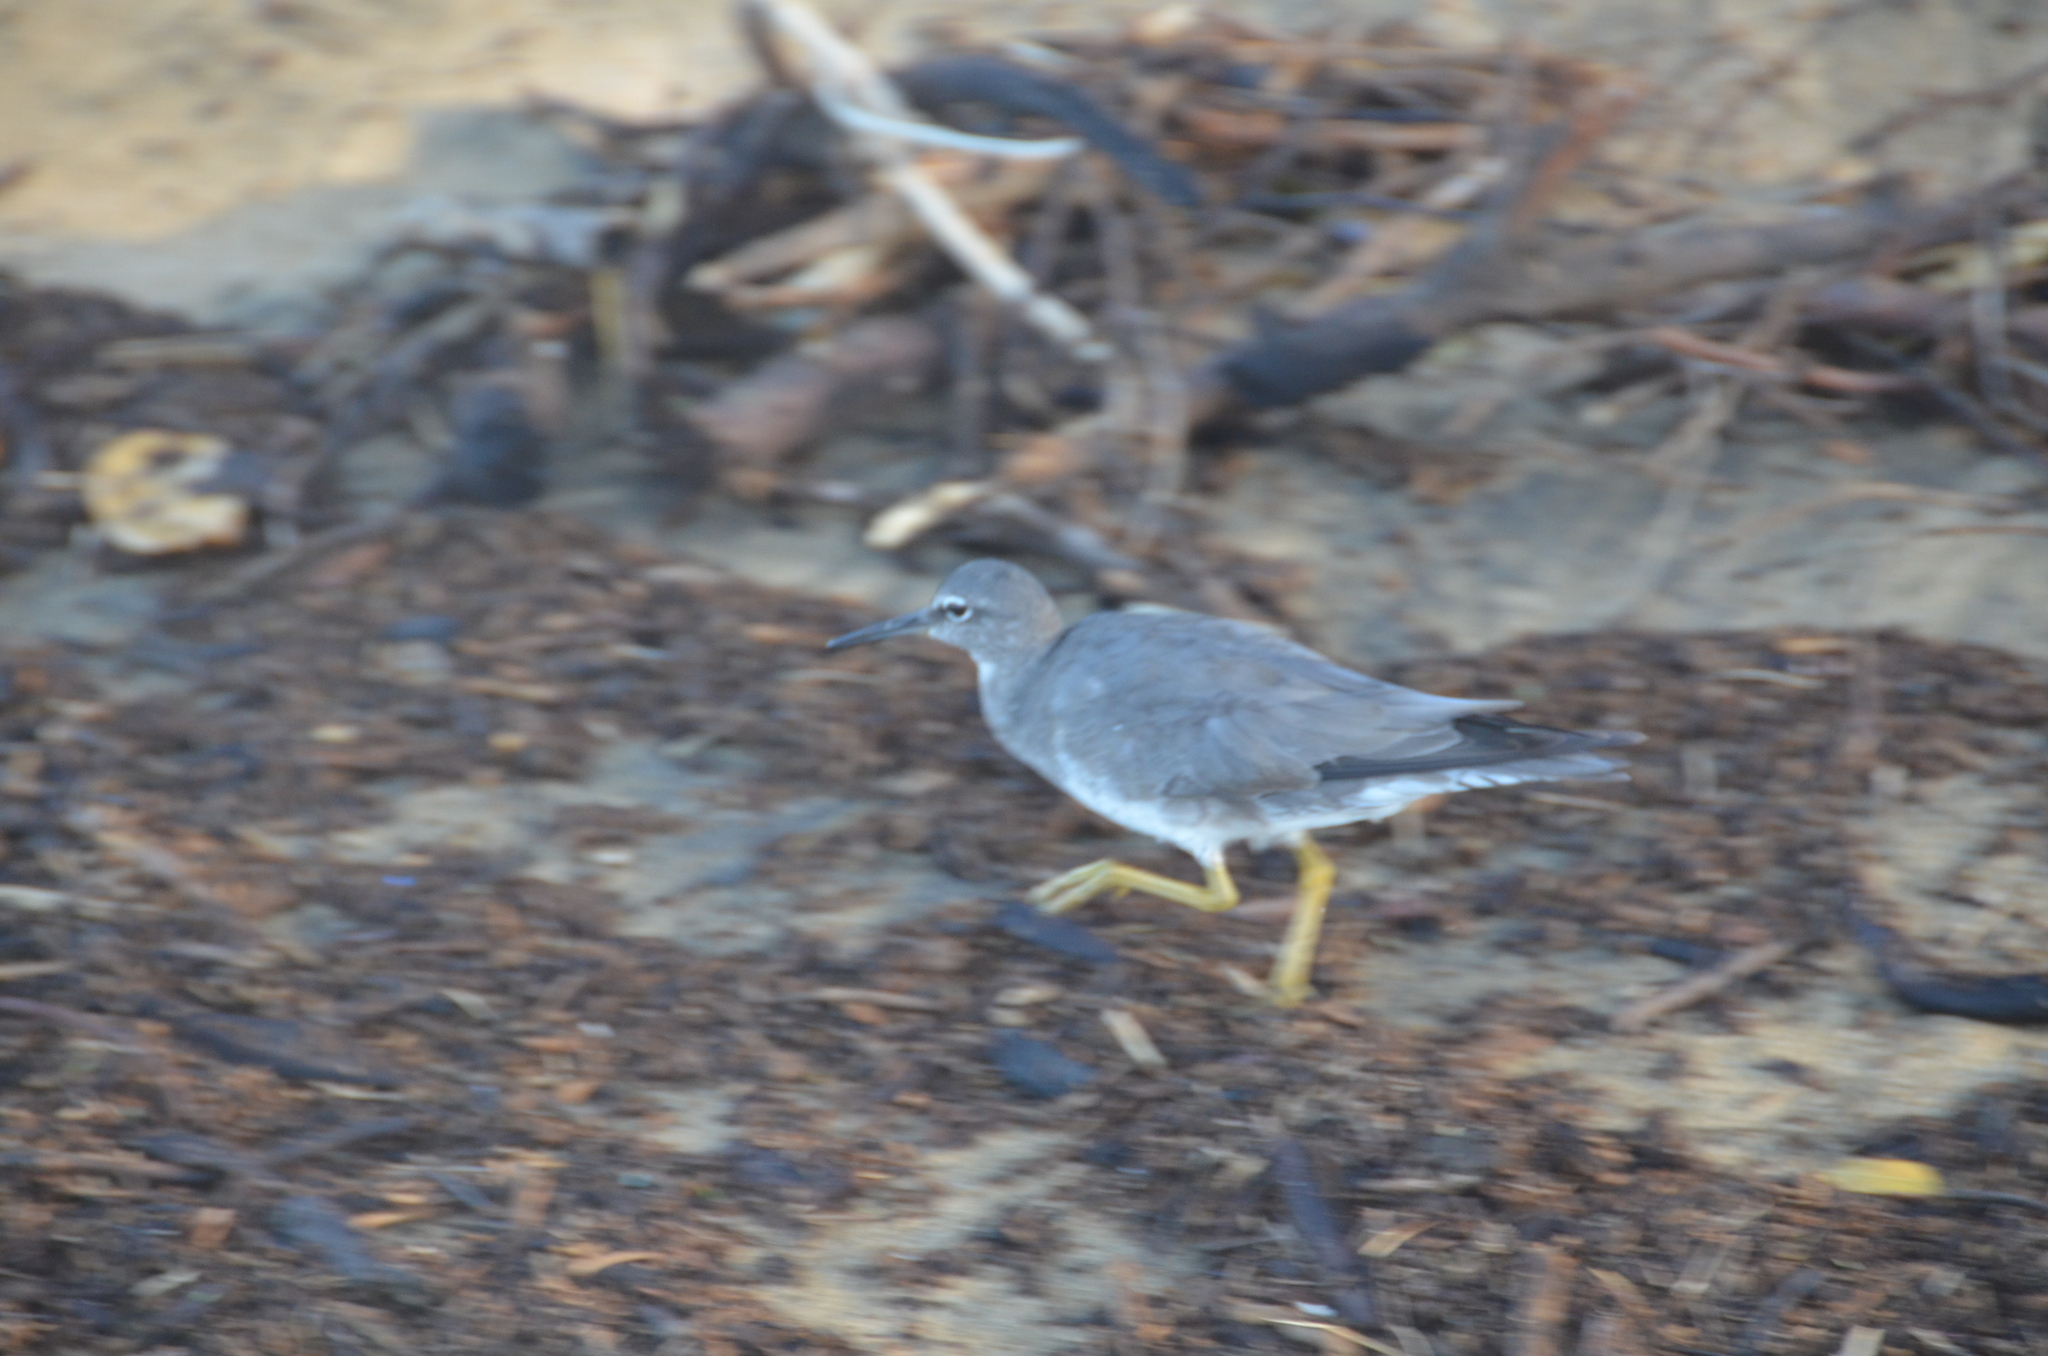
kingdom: Animalia
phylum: Chordata
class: Aves
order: Charadriiformes
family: Scolopacidae
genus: Tringa
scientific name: Tringa incana
